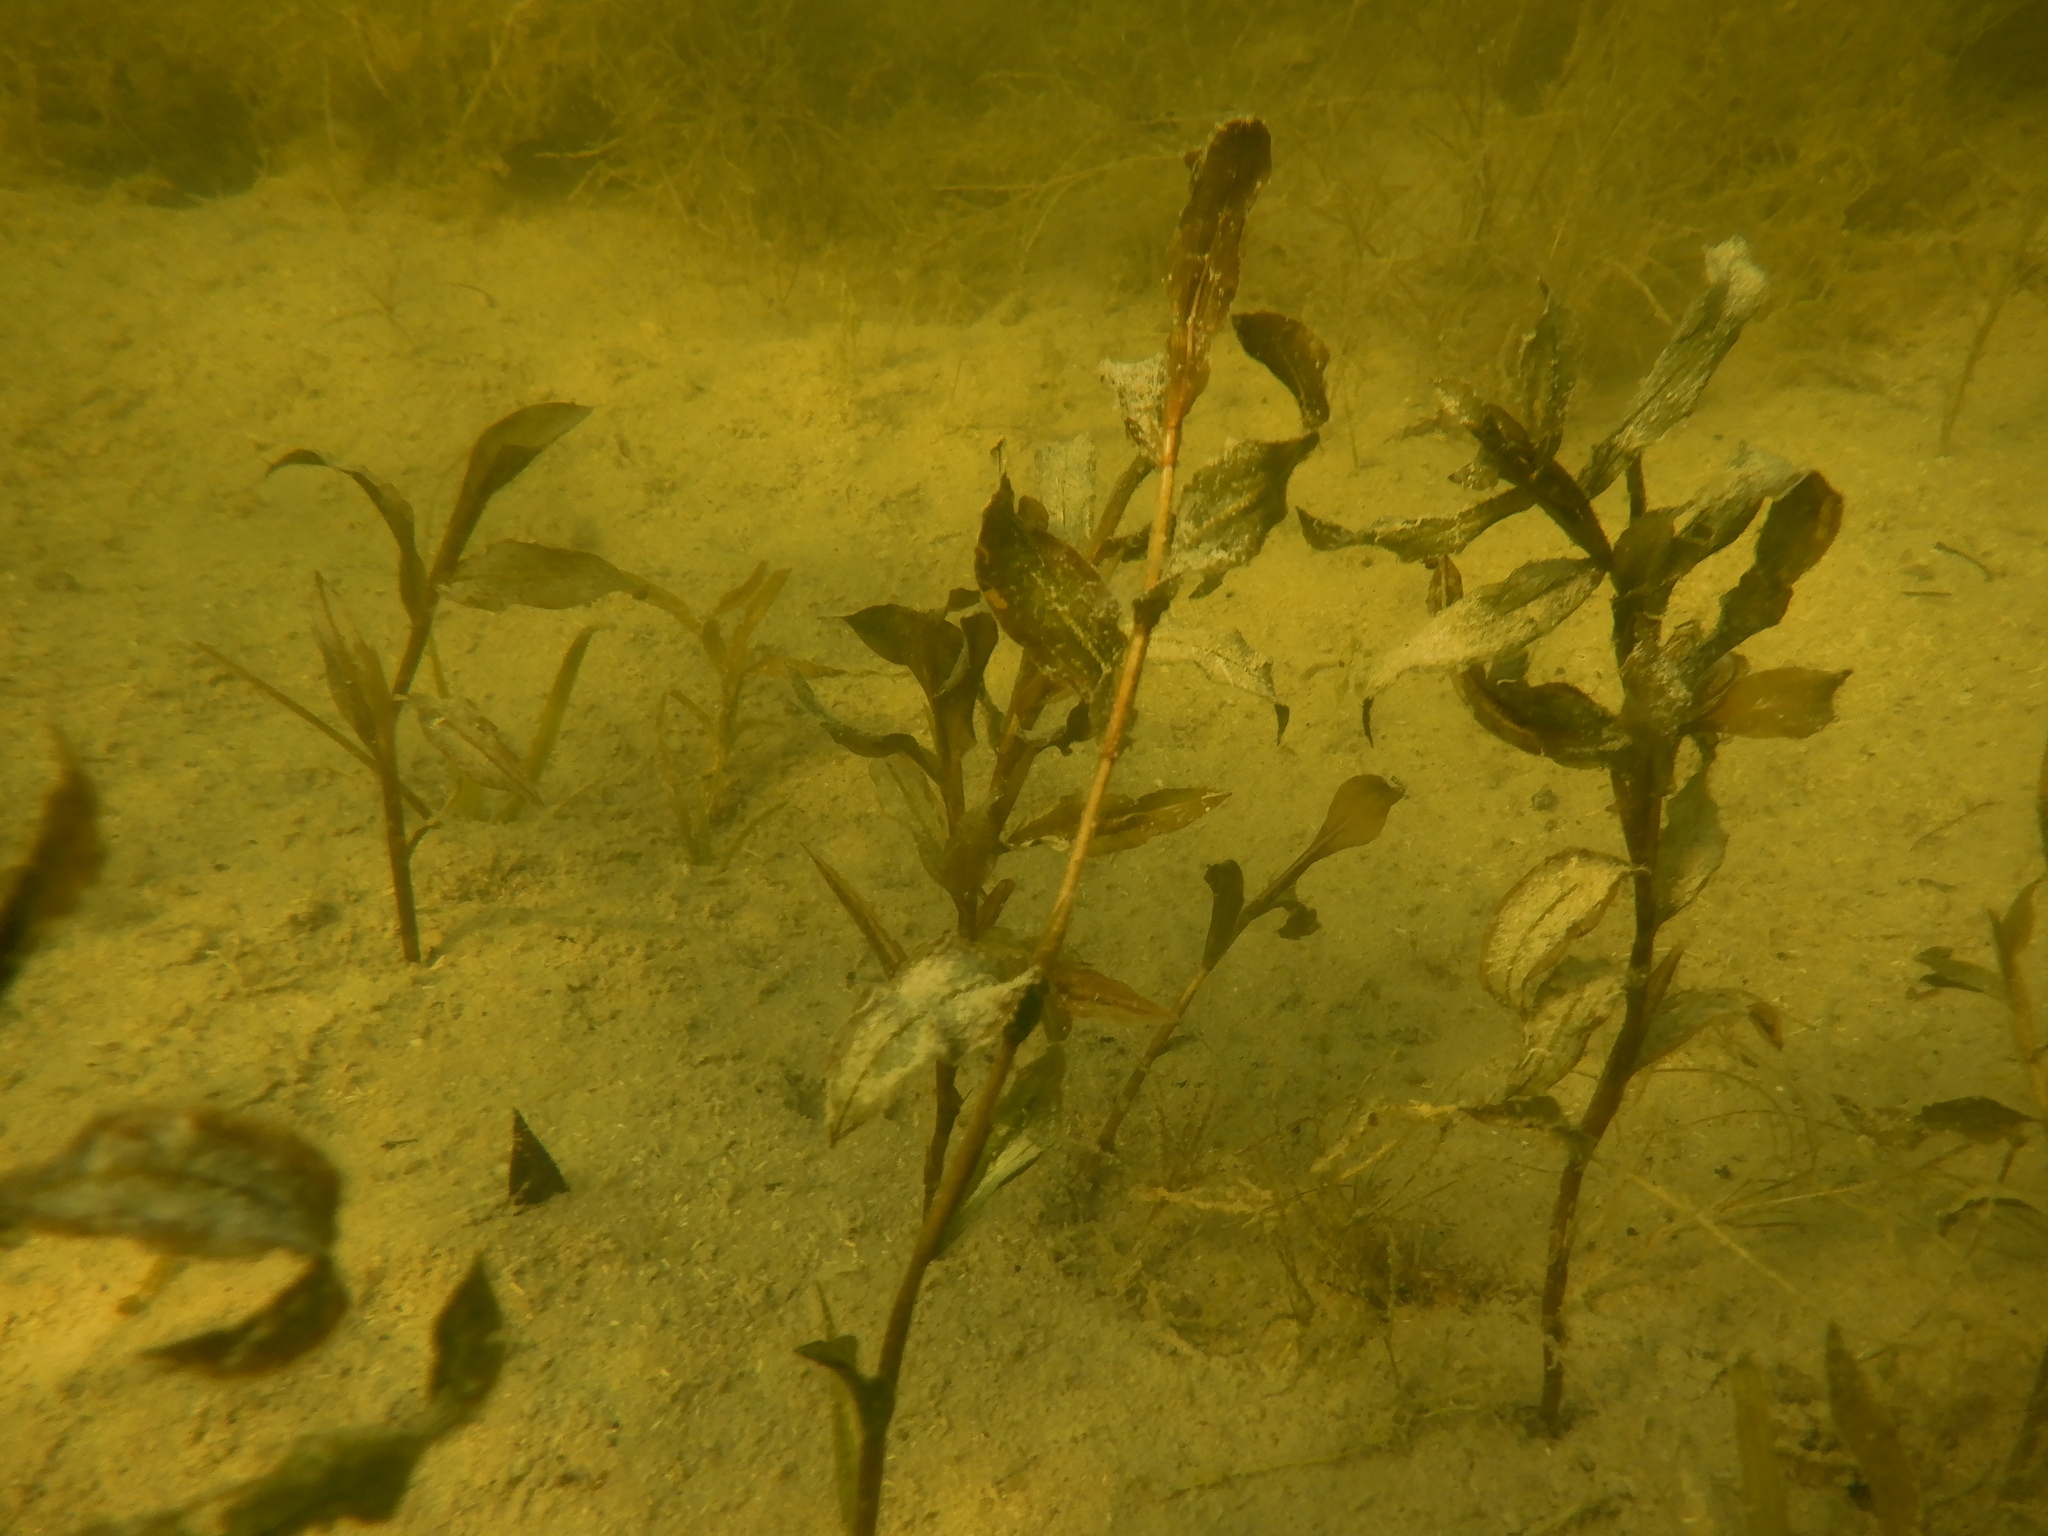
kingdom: Plantae
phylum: Tracheophyta
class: Liliopsida
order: Alismatales
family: Potamogetonaceae
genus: Potamogeton
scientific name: Potamogeton illinoensis
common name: Illinois pondweed
